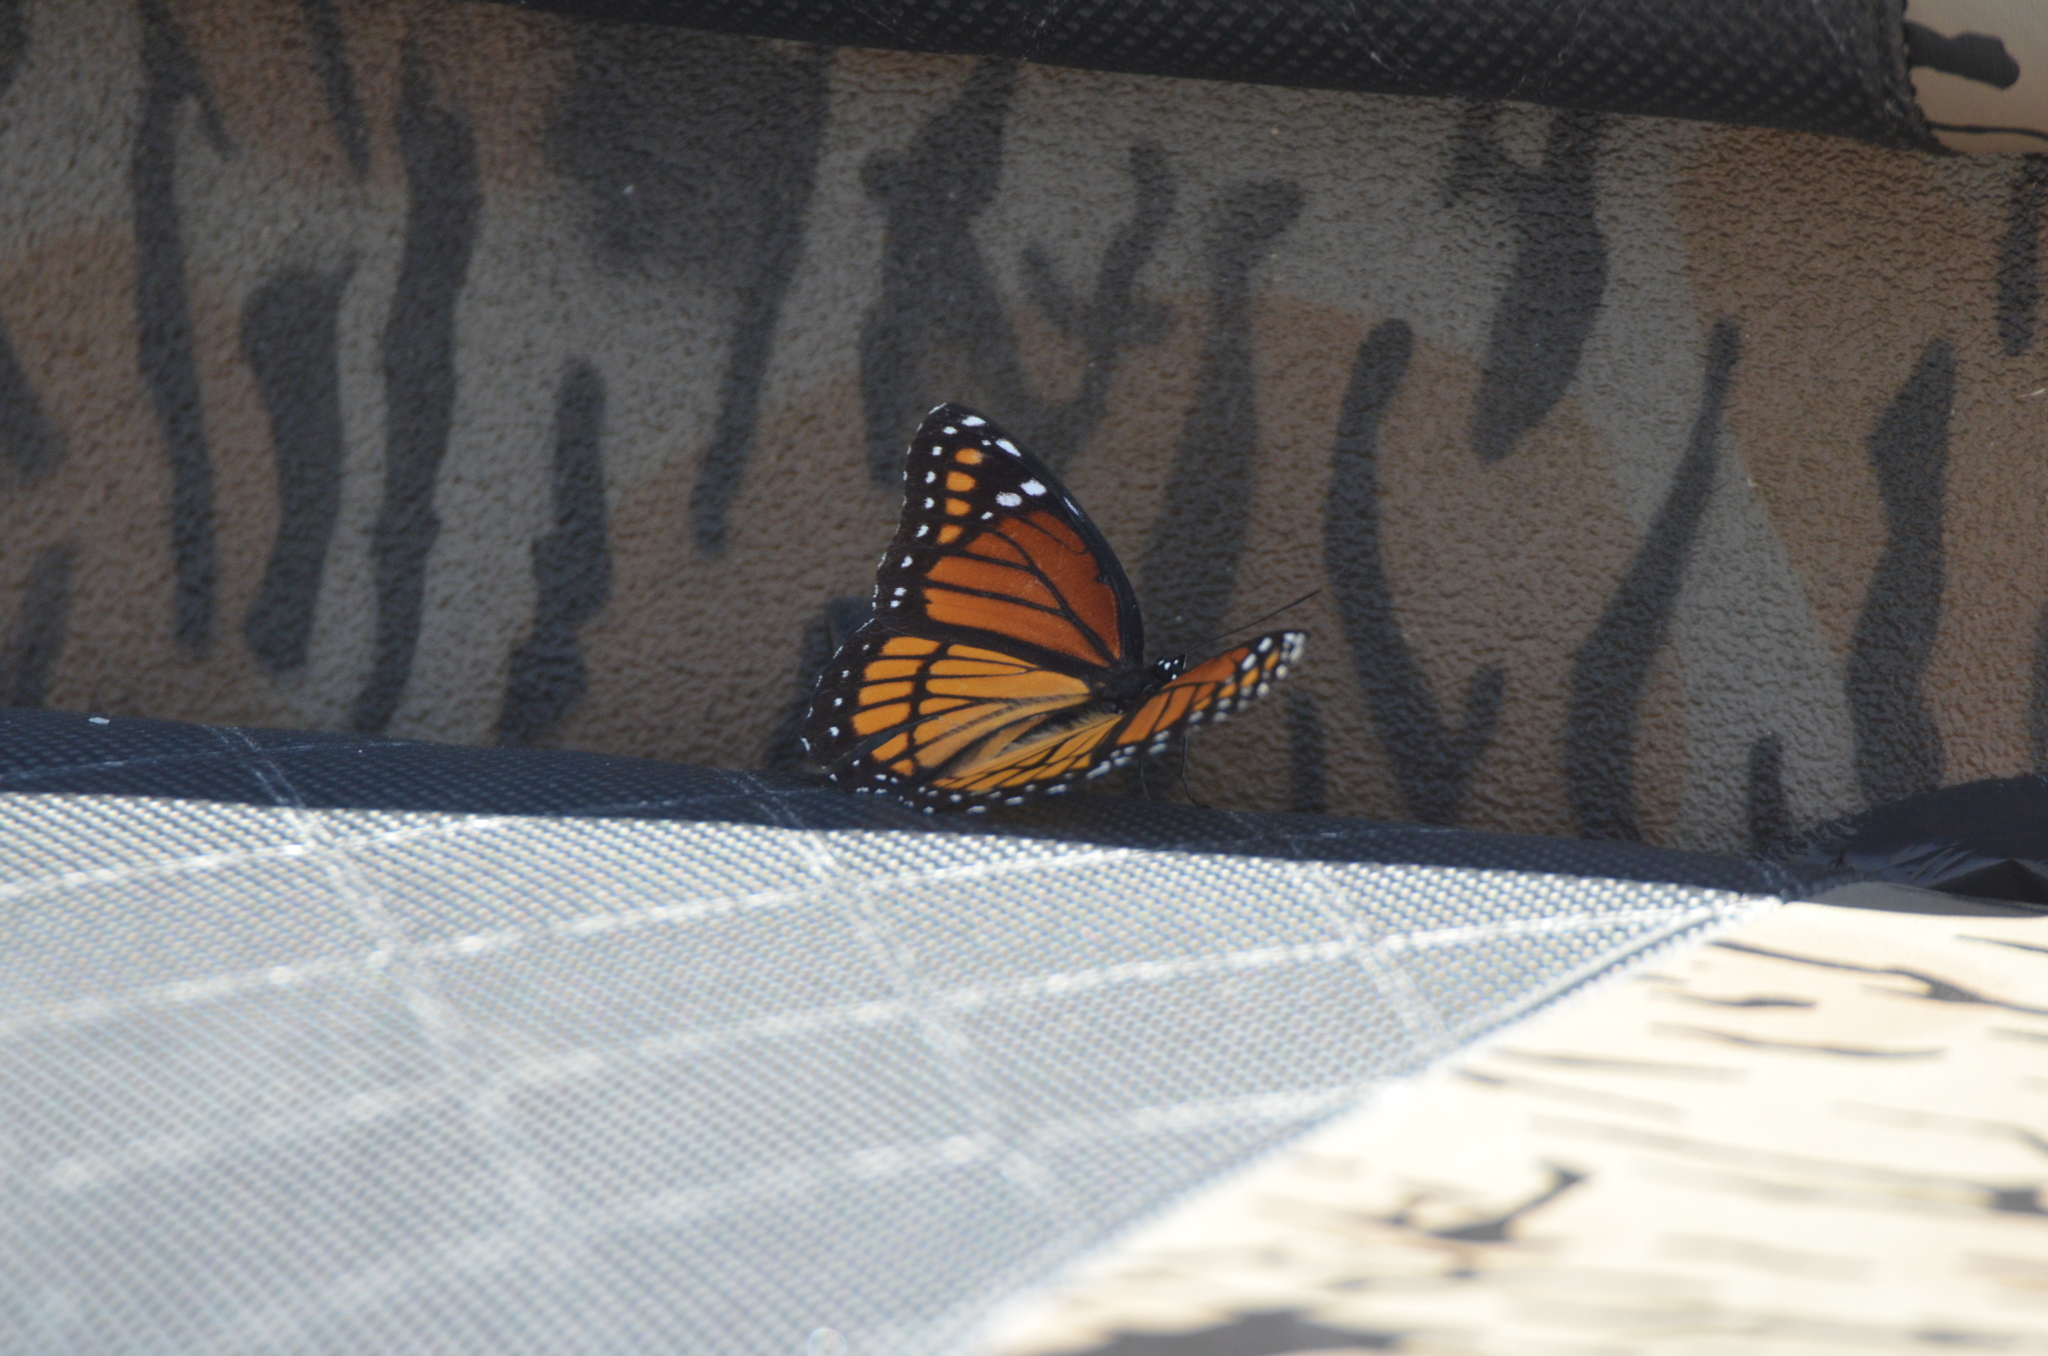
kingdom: Animalia
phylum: Arthropoda
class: Insecta
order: Lepidoptera
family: Nymphalidae
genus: Limenitis
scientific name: Limenitis archippus
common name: Viceroy
